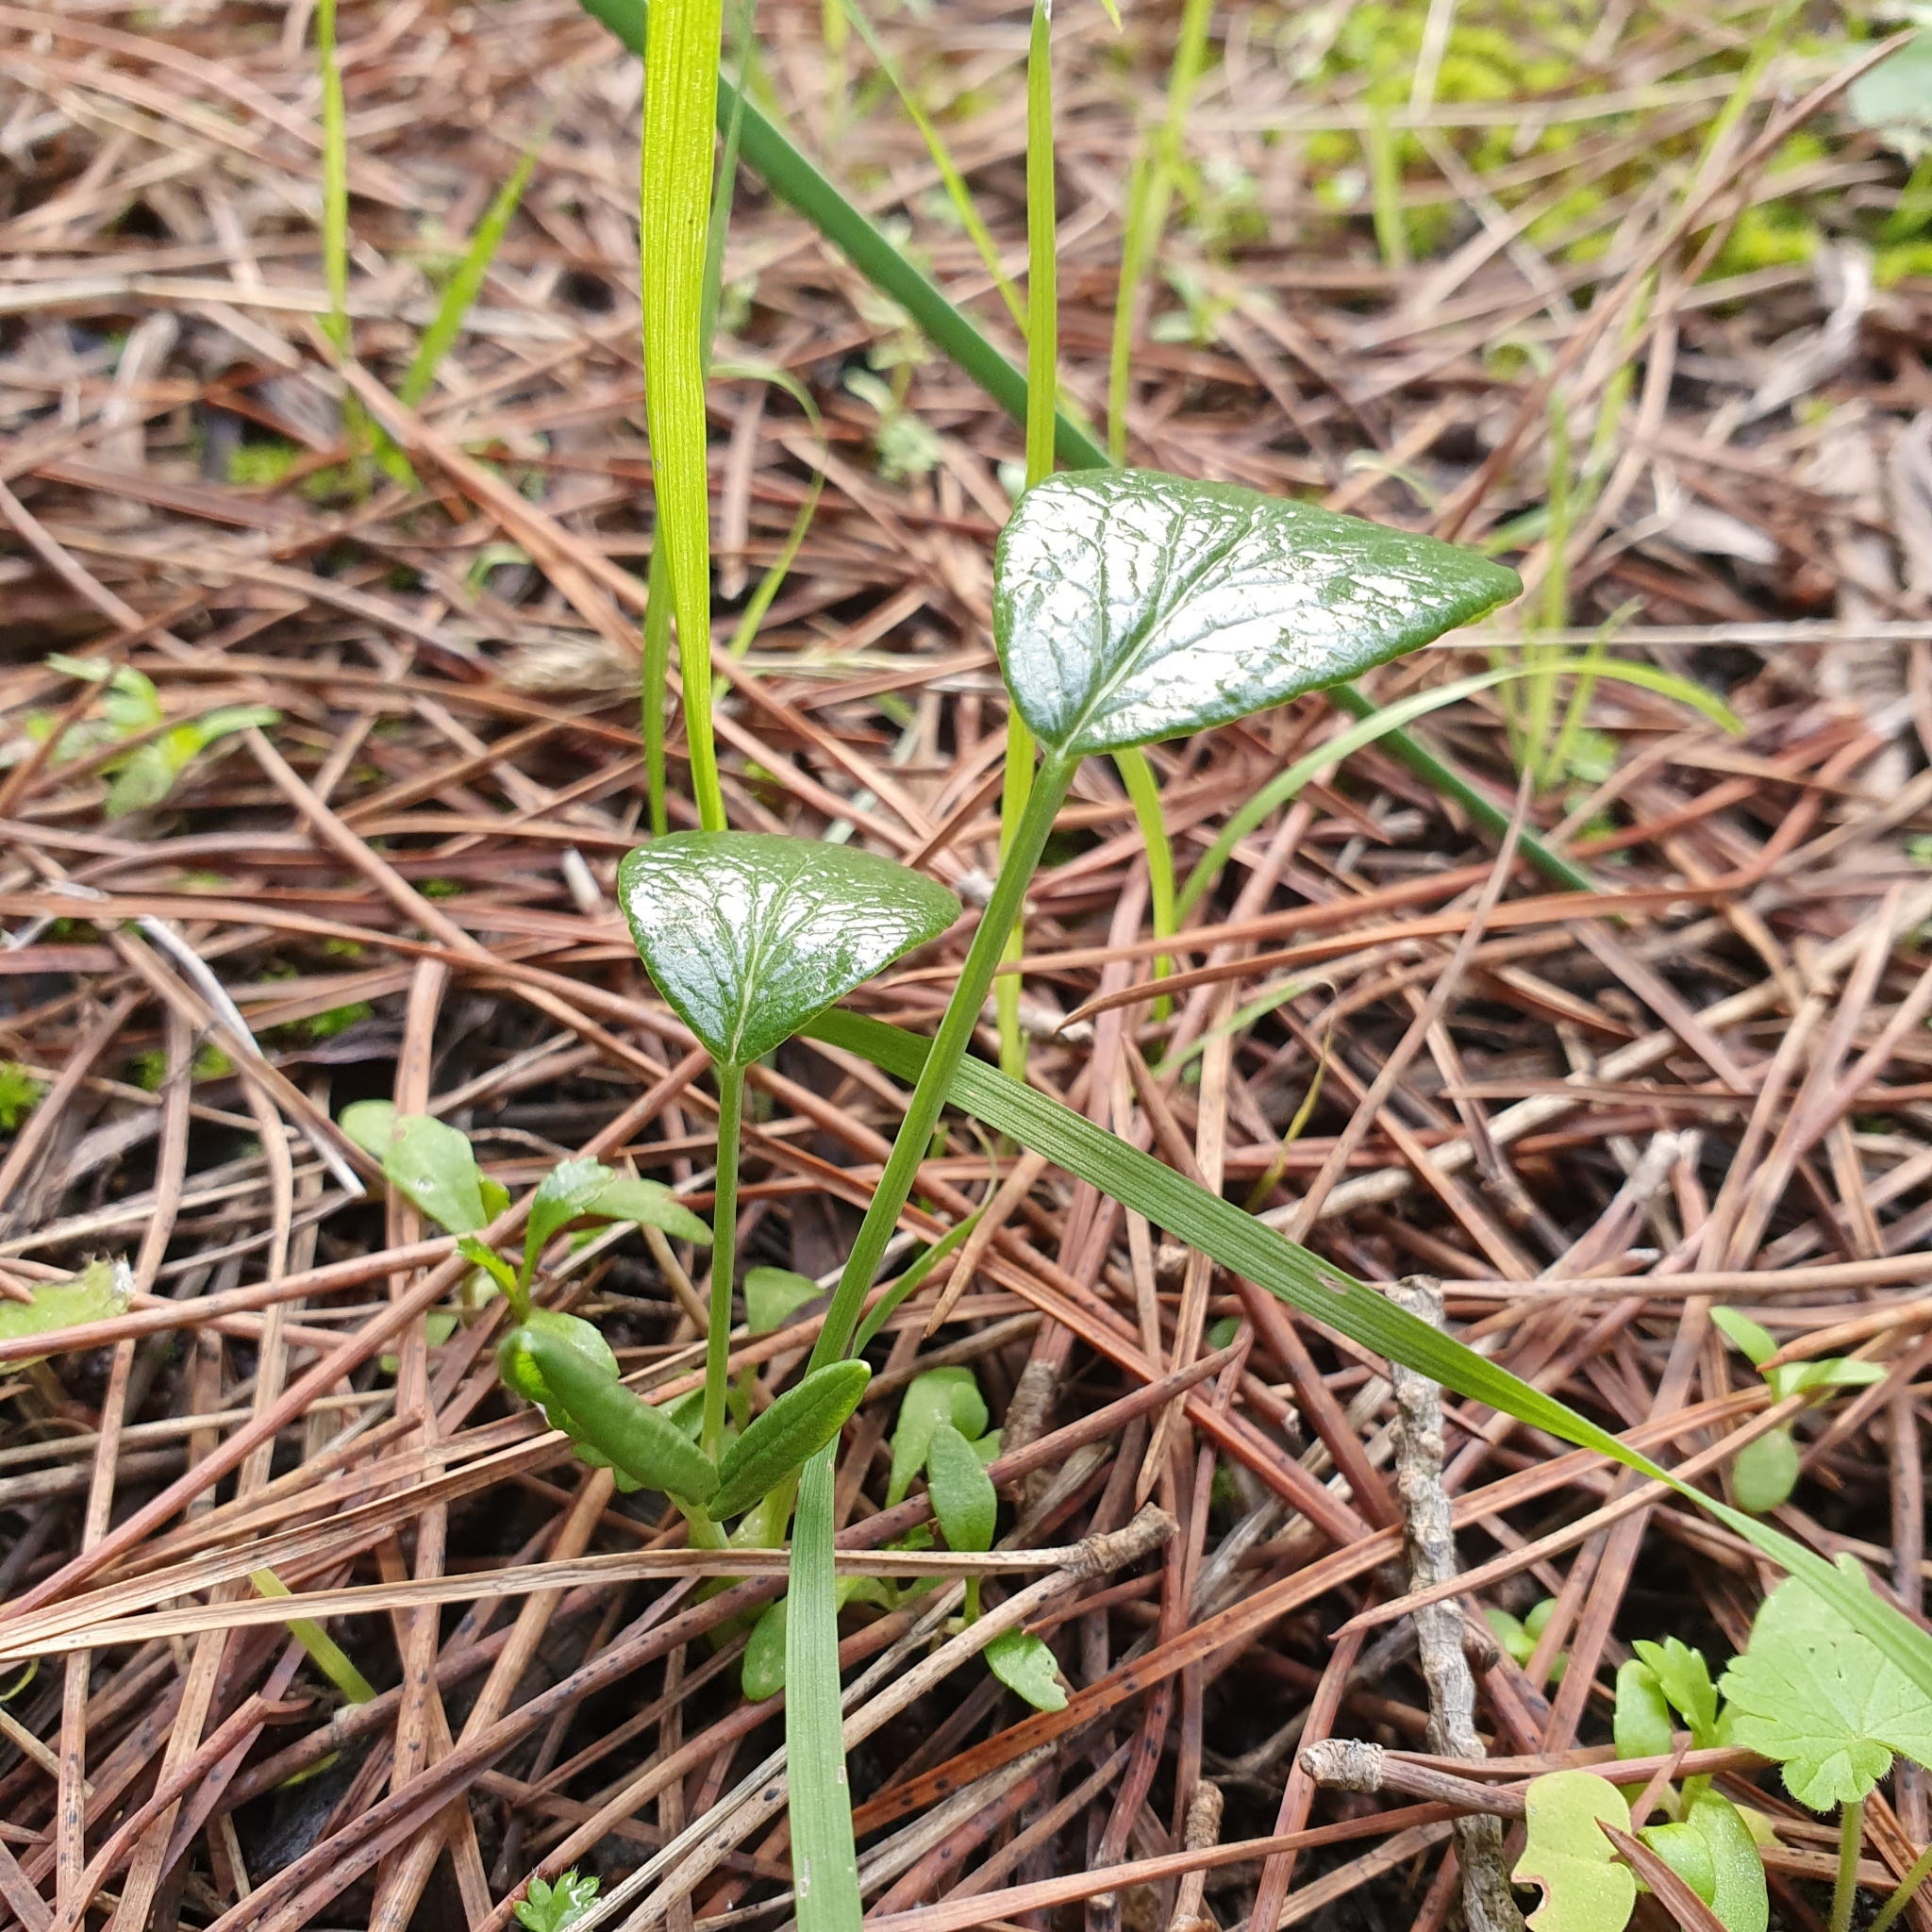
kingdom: Plantae
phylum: Tracheophyta
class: Magnoliopsida
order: Apiales
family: Apiaceae
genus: Thapsia
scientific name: Thapsia garganica
